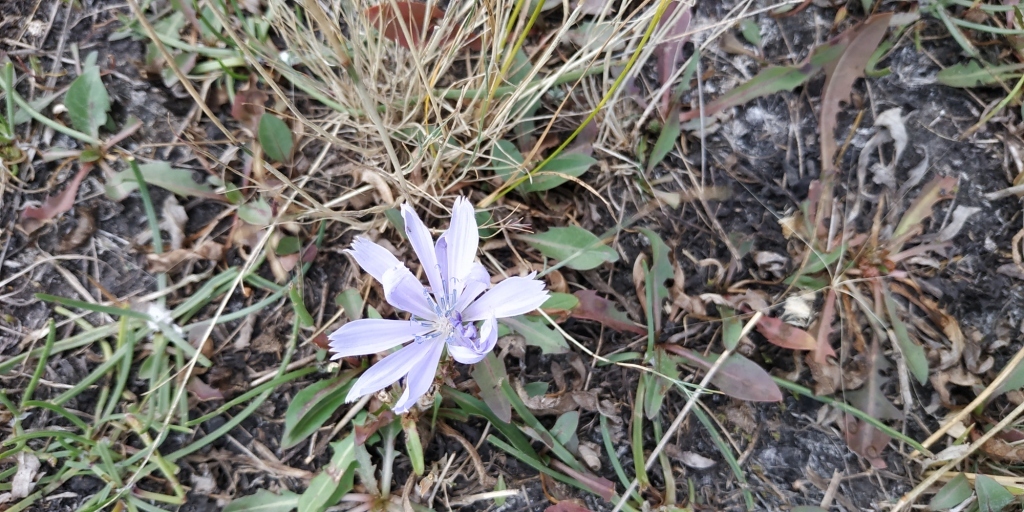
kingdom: Plantae
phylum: Tracheophyta
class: Magnoliopsida
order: Asterales
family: Asteraceae
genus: Cichorium
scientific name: Cichorium intybus
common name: Chicory
